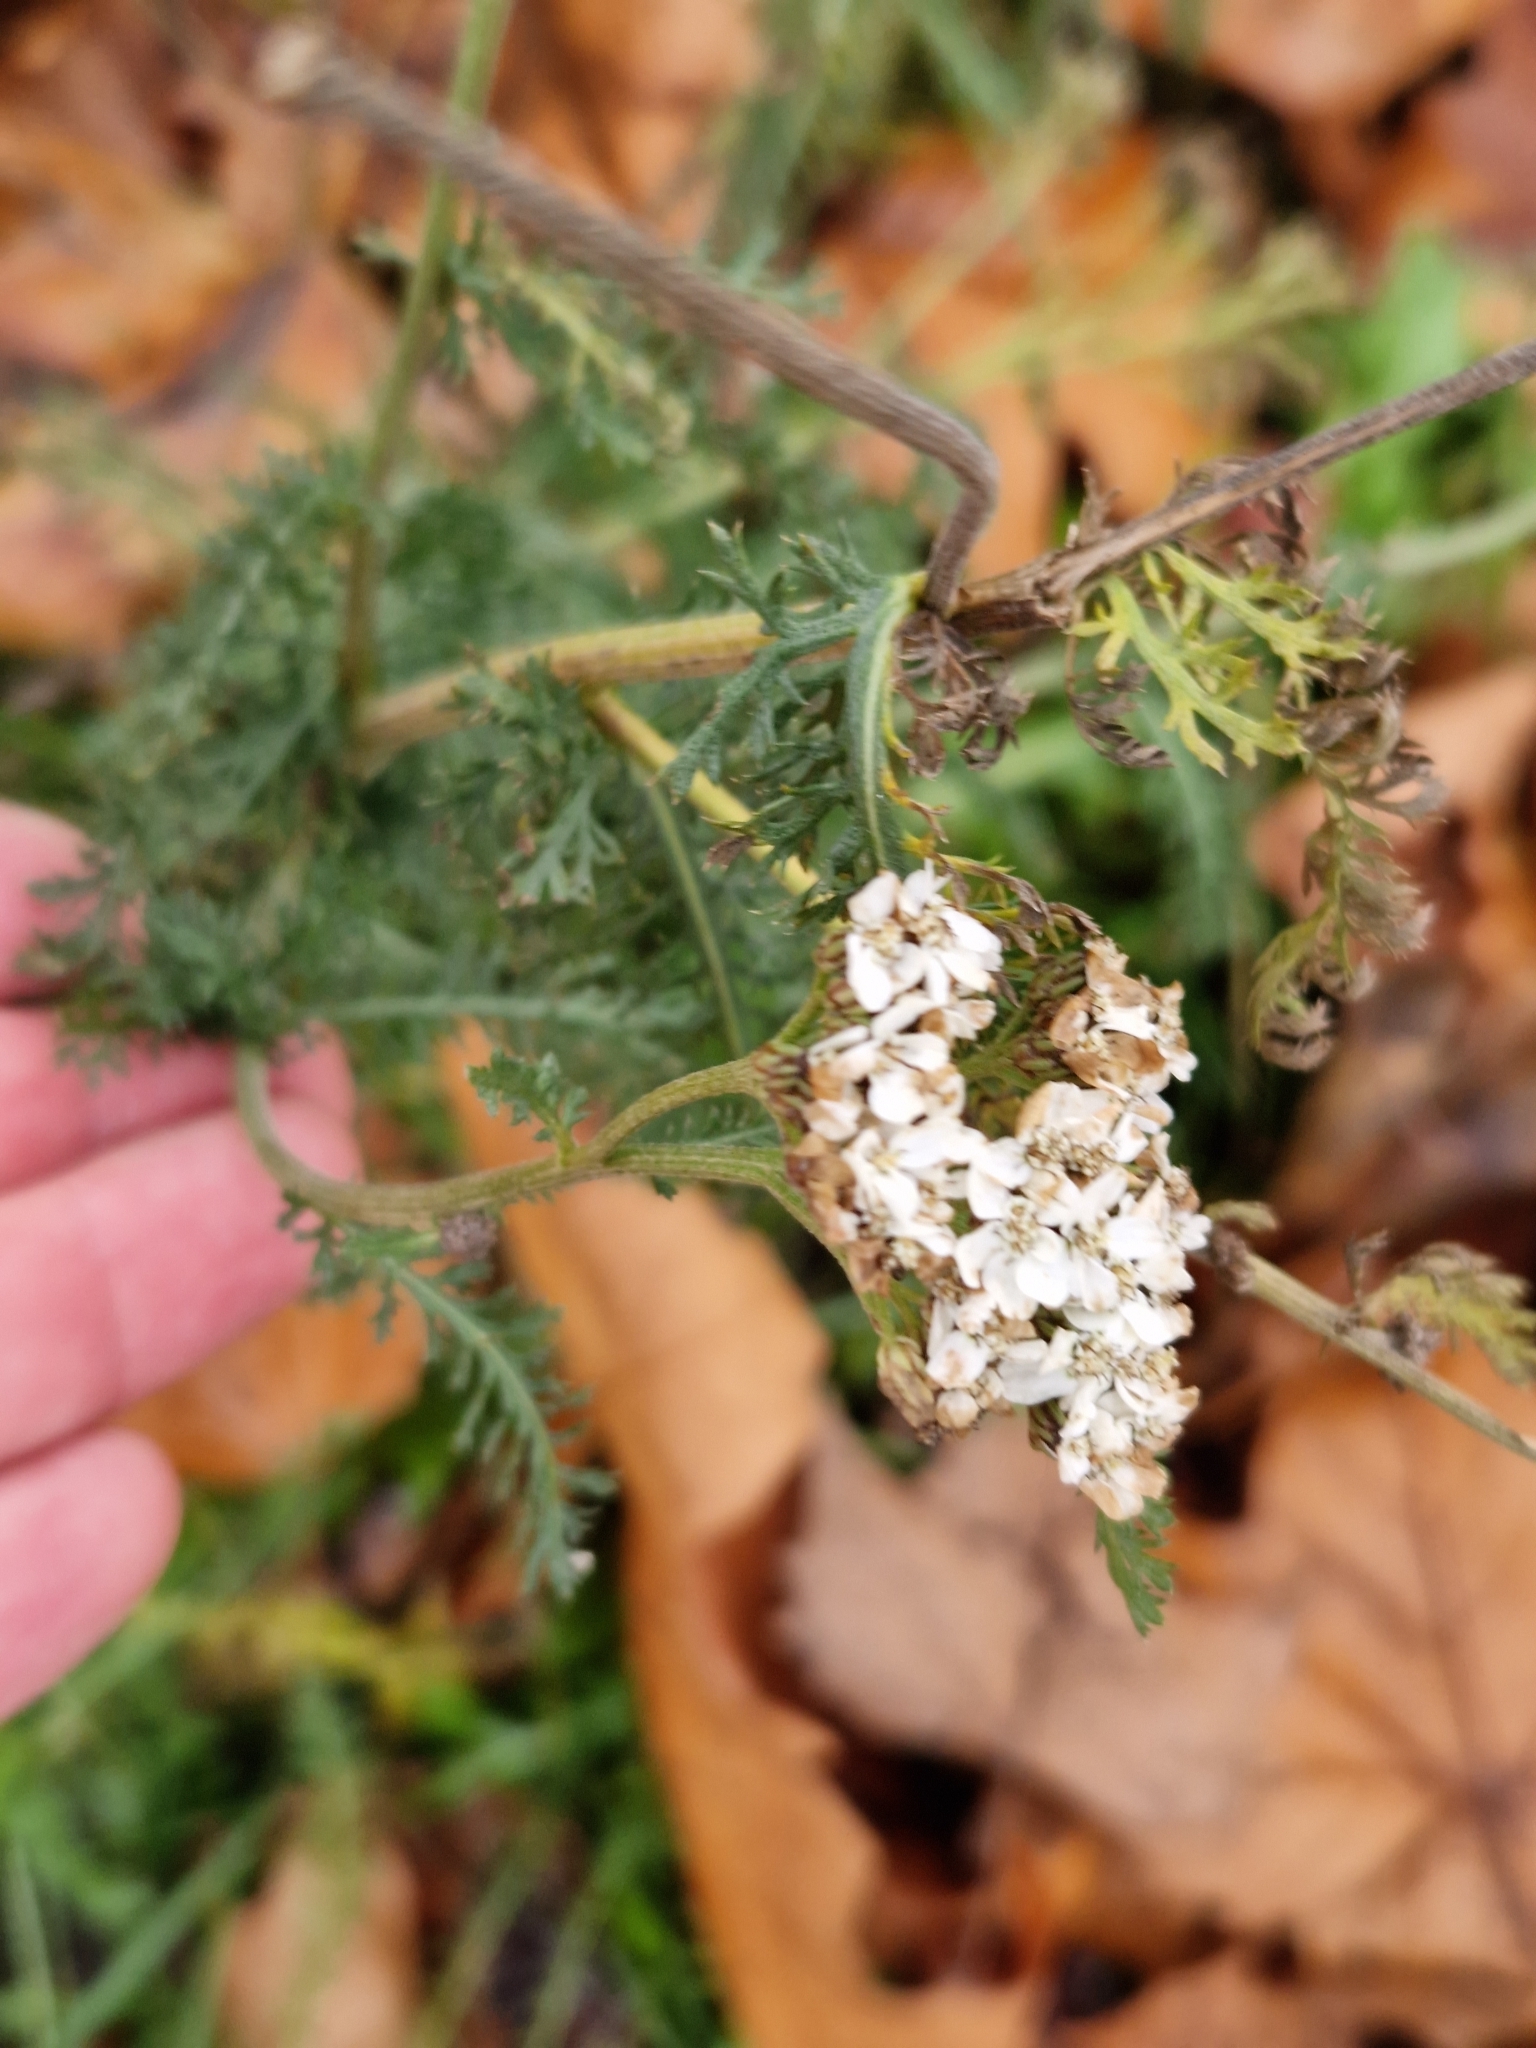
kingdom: Plantae
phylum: Tracheophyta
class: Magnoliopsida
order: Asterales
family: Asteraceae
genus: Achillea
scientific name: Achillea millefolium
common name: Yarrow
